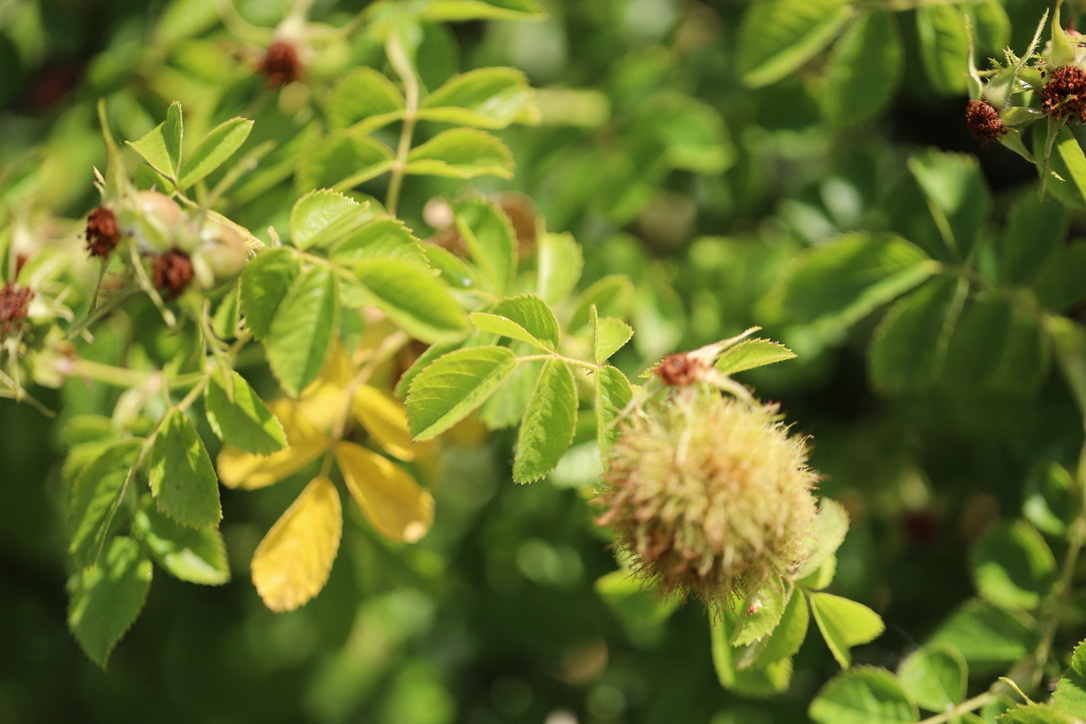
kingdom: Animalia
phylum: Arthropoda
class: Insecta
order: Hymenoptera
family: Cynipidae
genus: Diplolepis
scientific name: Diplolepis rosae
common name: Bedeguar gall
